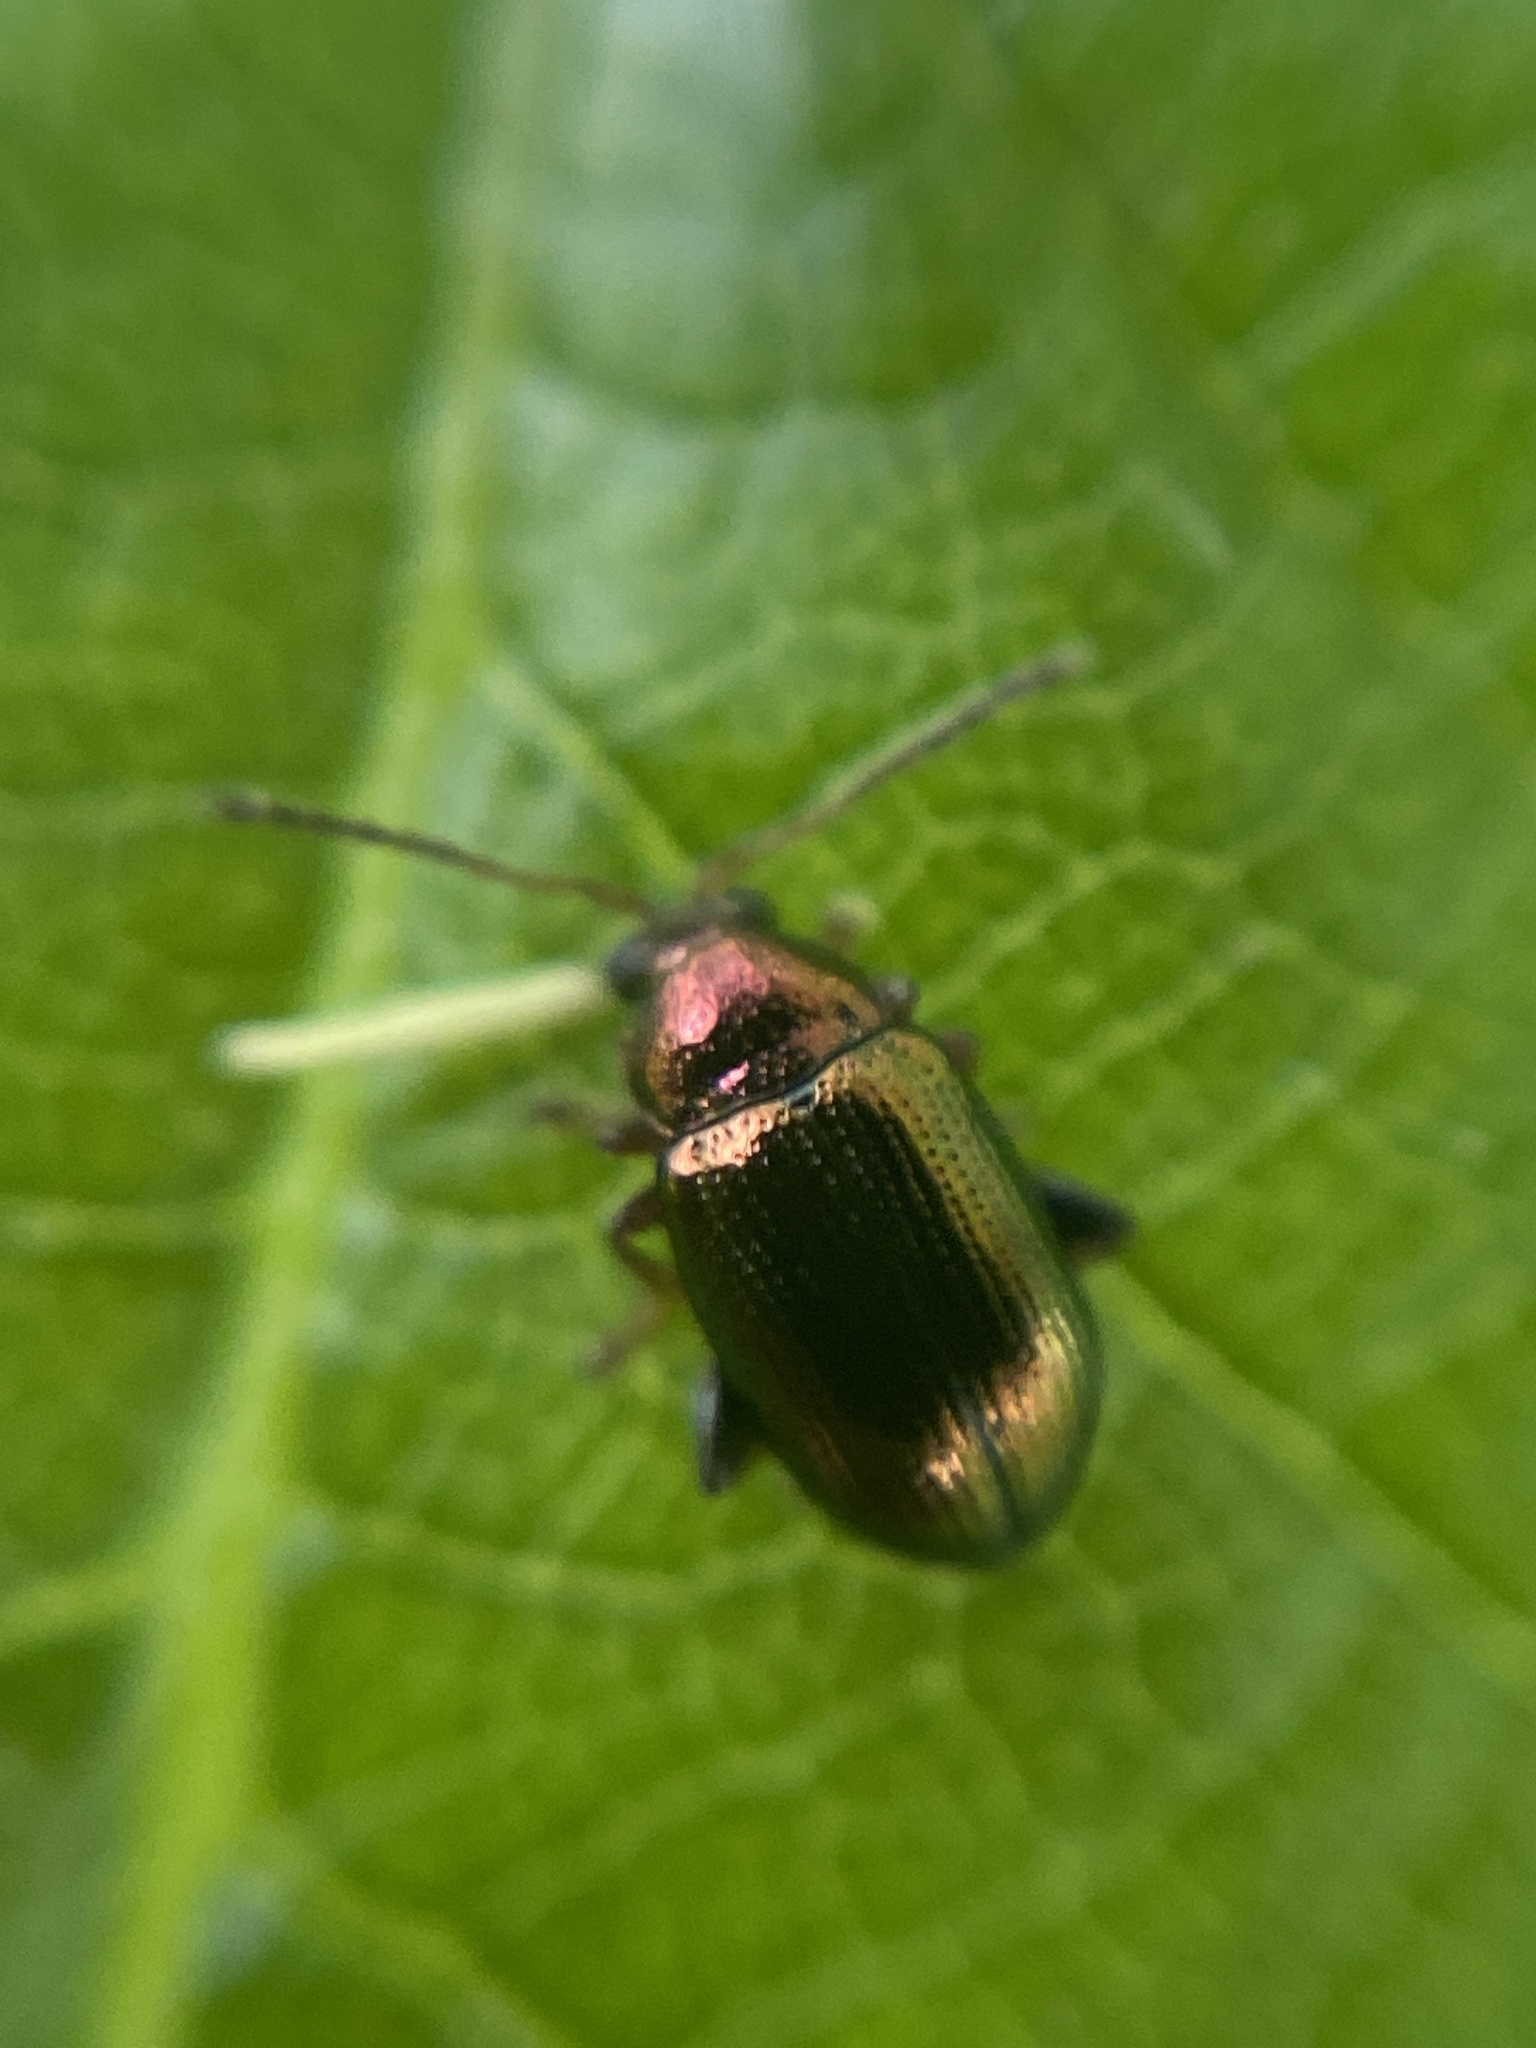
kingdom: Animalia
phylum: Arthropoda
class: Insecta
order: Coleoptera
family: Chrysomelidae
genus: Crepidodera
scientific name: Crepidodera aurata
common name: Willow flea beetle
